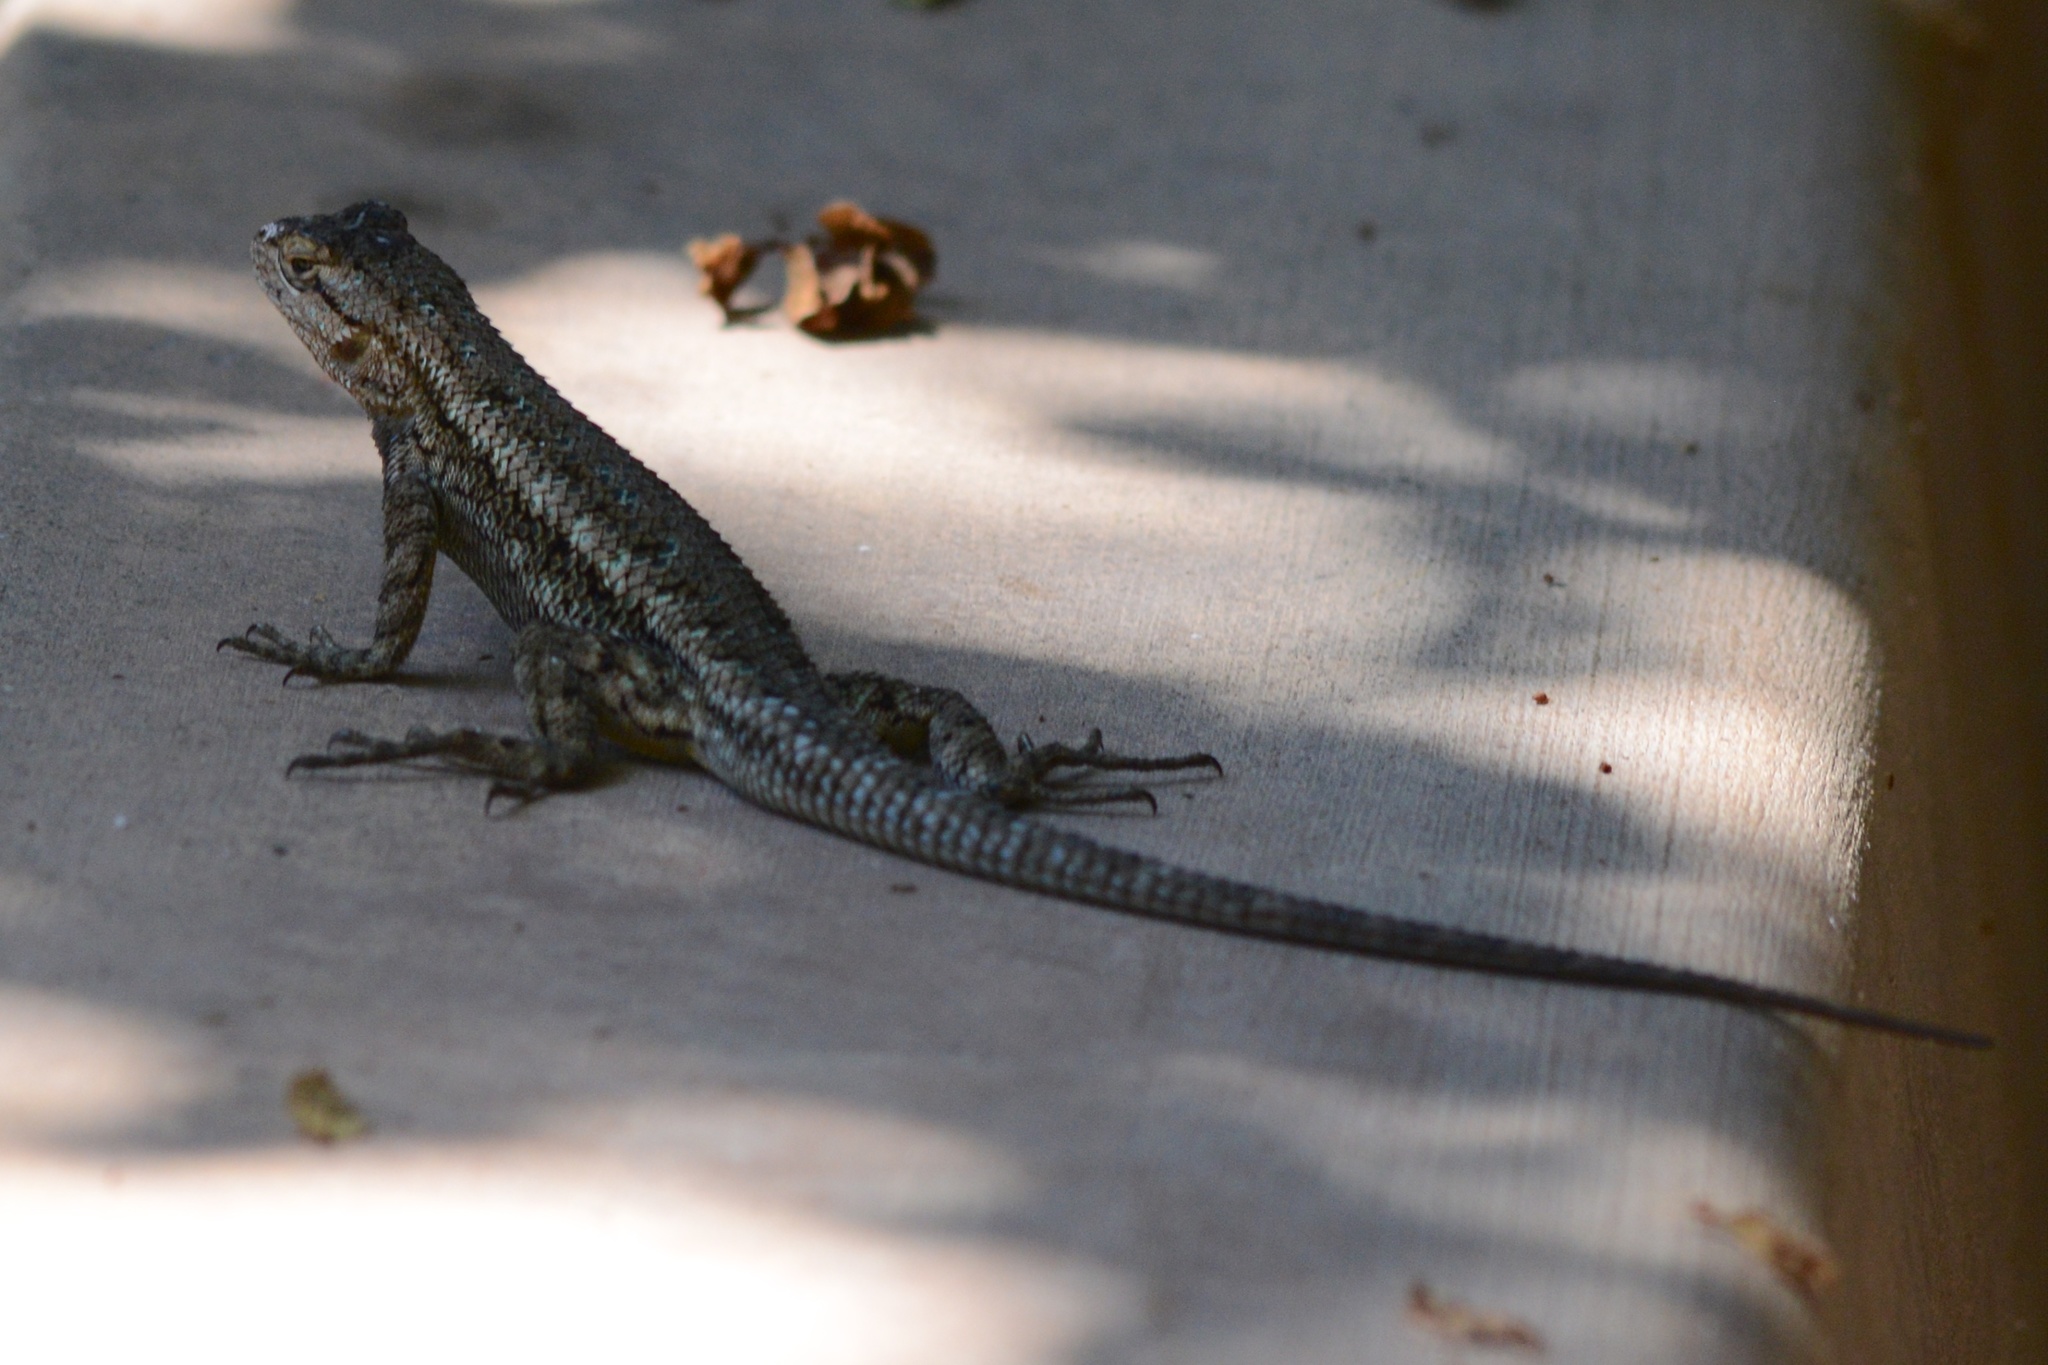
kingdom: Animalia
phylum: Chordata
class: Squamata
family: Phrynosomatidae
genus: Sceloporus
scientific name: Sceloporus occidentalis
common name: Western fence lizard
